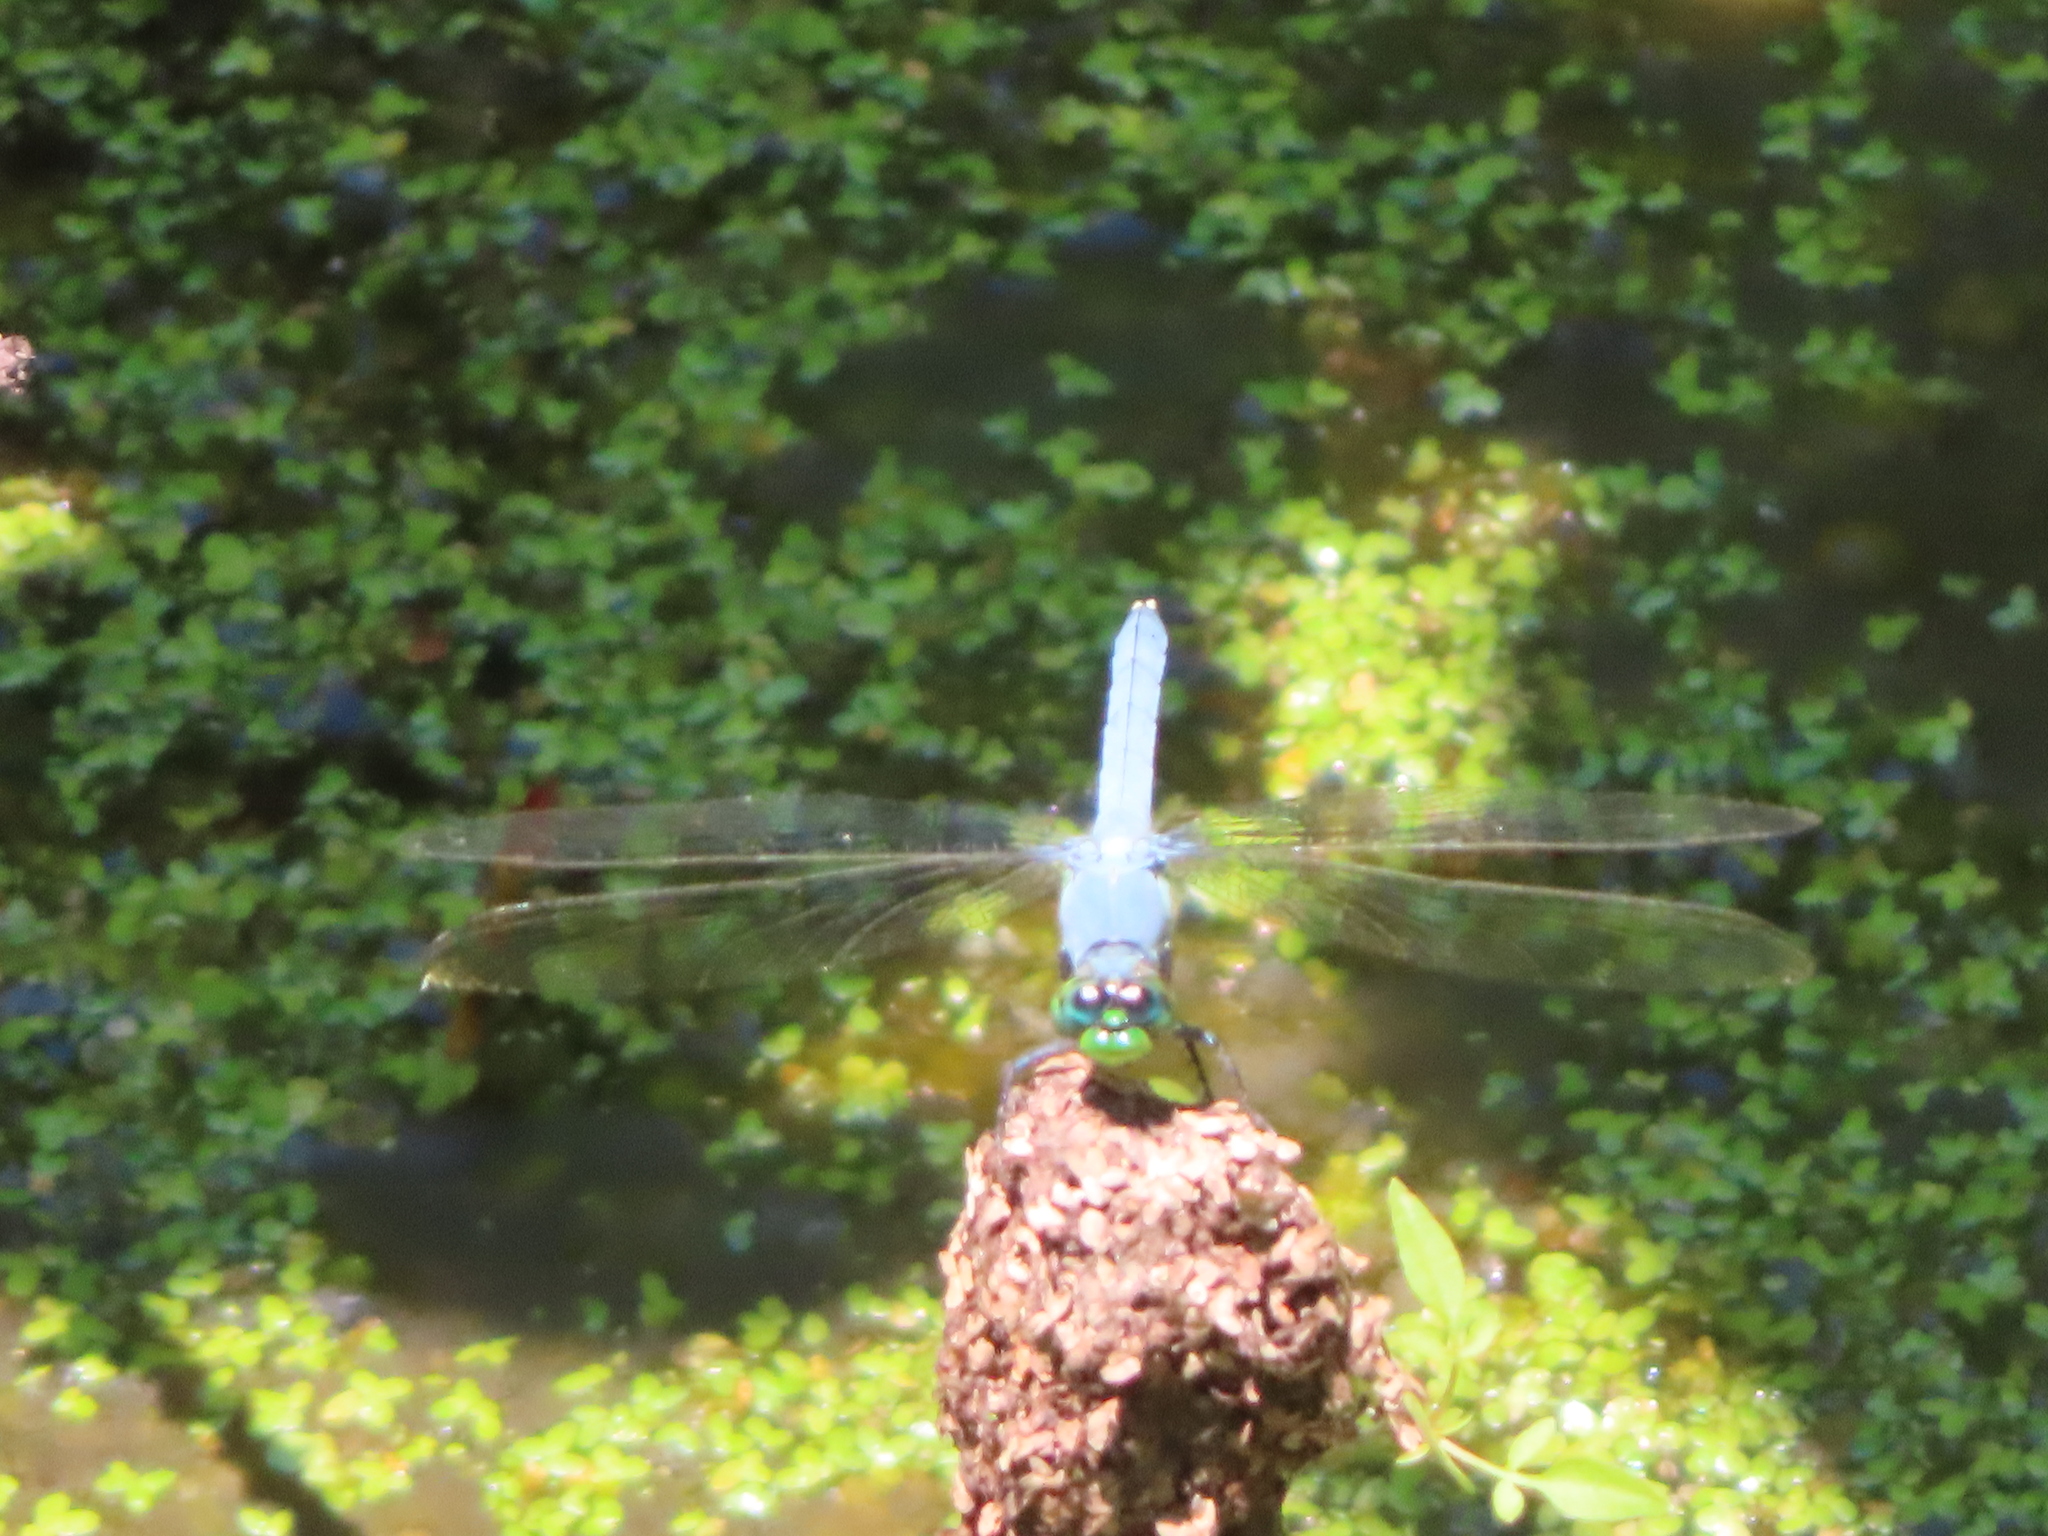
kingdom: Animalia
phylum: Arthropoda
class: Insecta
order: Odonata
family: Libellulidae
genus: Pachydiplax
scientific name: Pachydiplax longipennis
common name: Blue dasher
